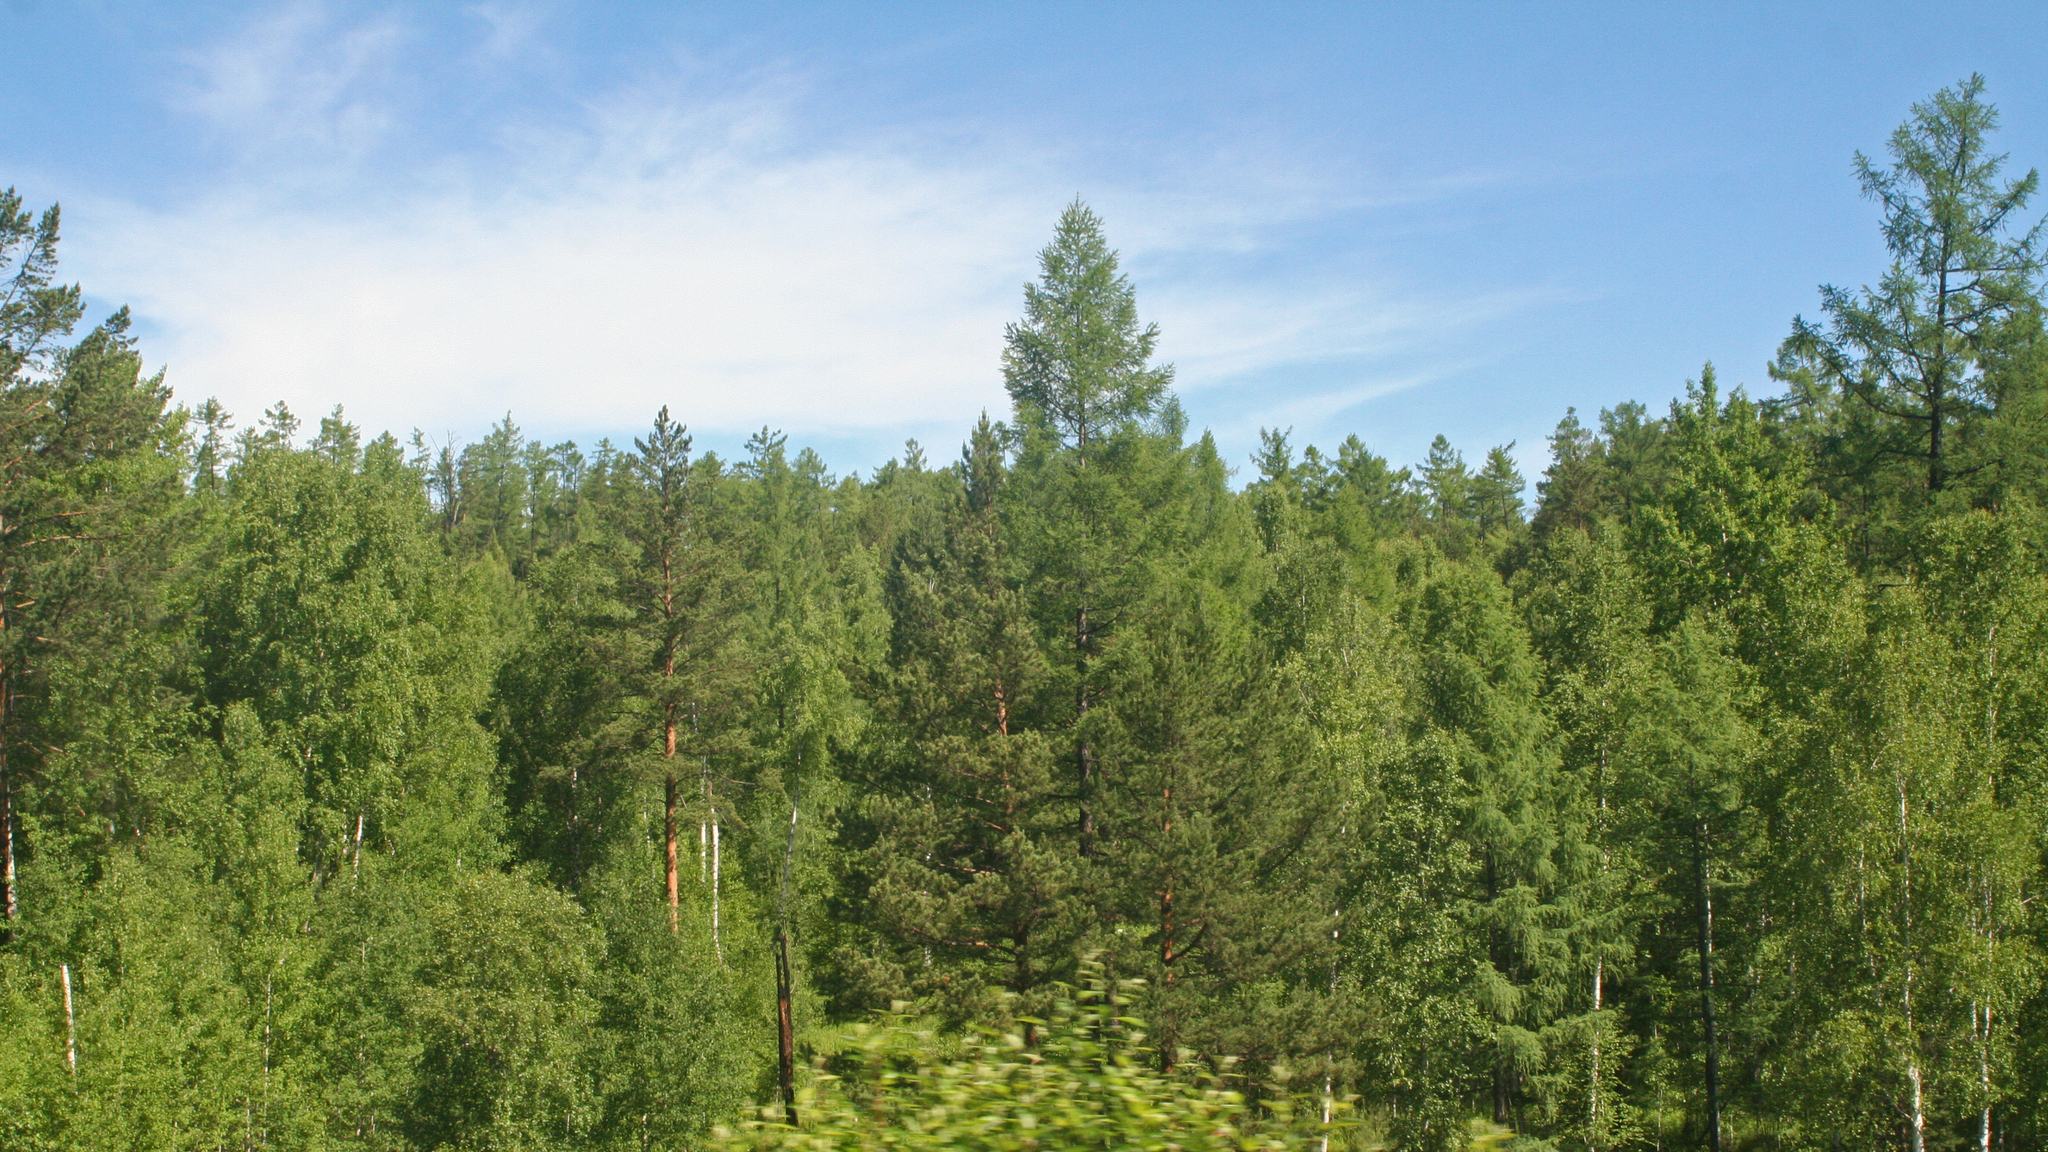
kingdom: Plantae
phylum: Tracheophyta
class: Pinopsida
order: Pinales
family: Pinaceae
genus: Larix
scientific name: Larix sibirica
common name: Siberian larch
